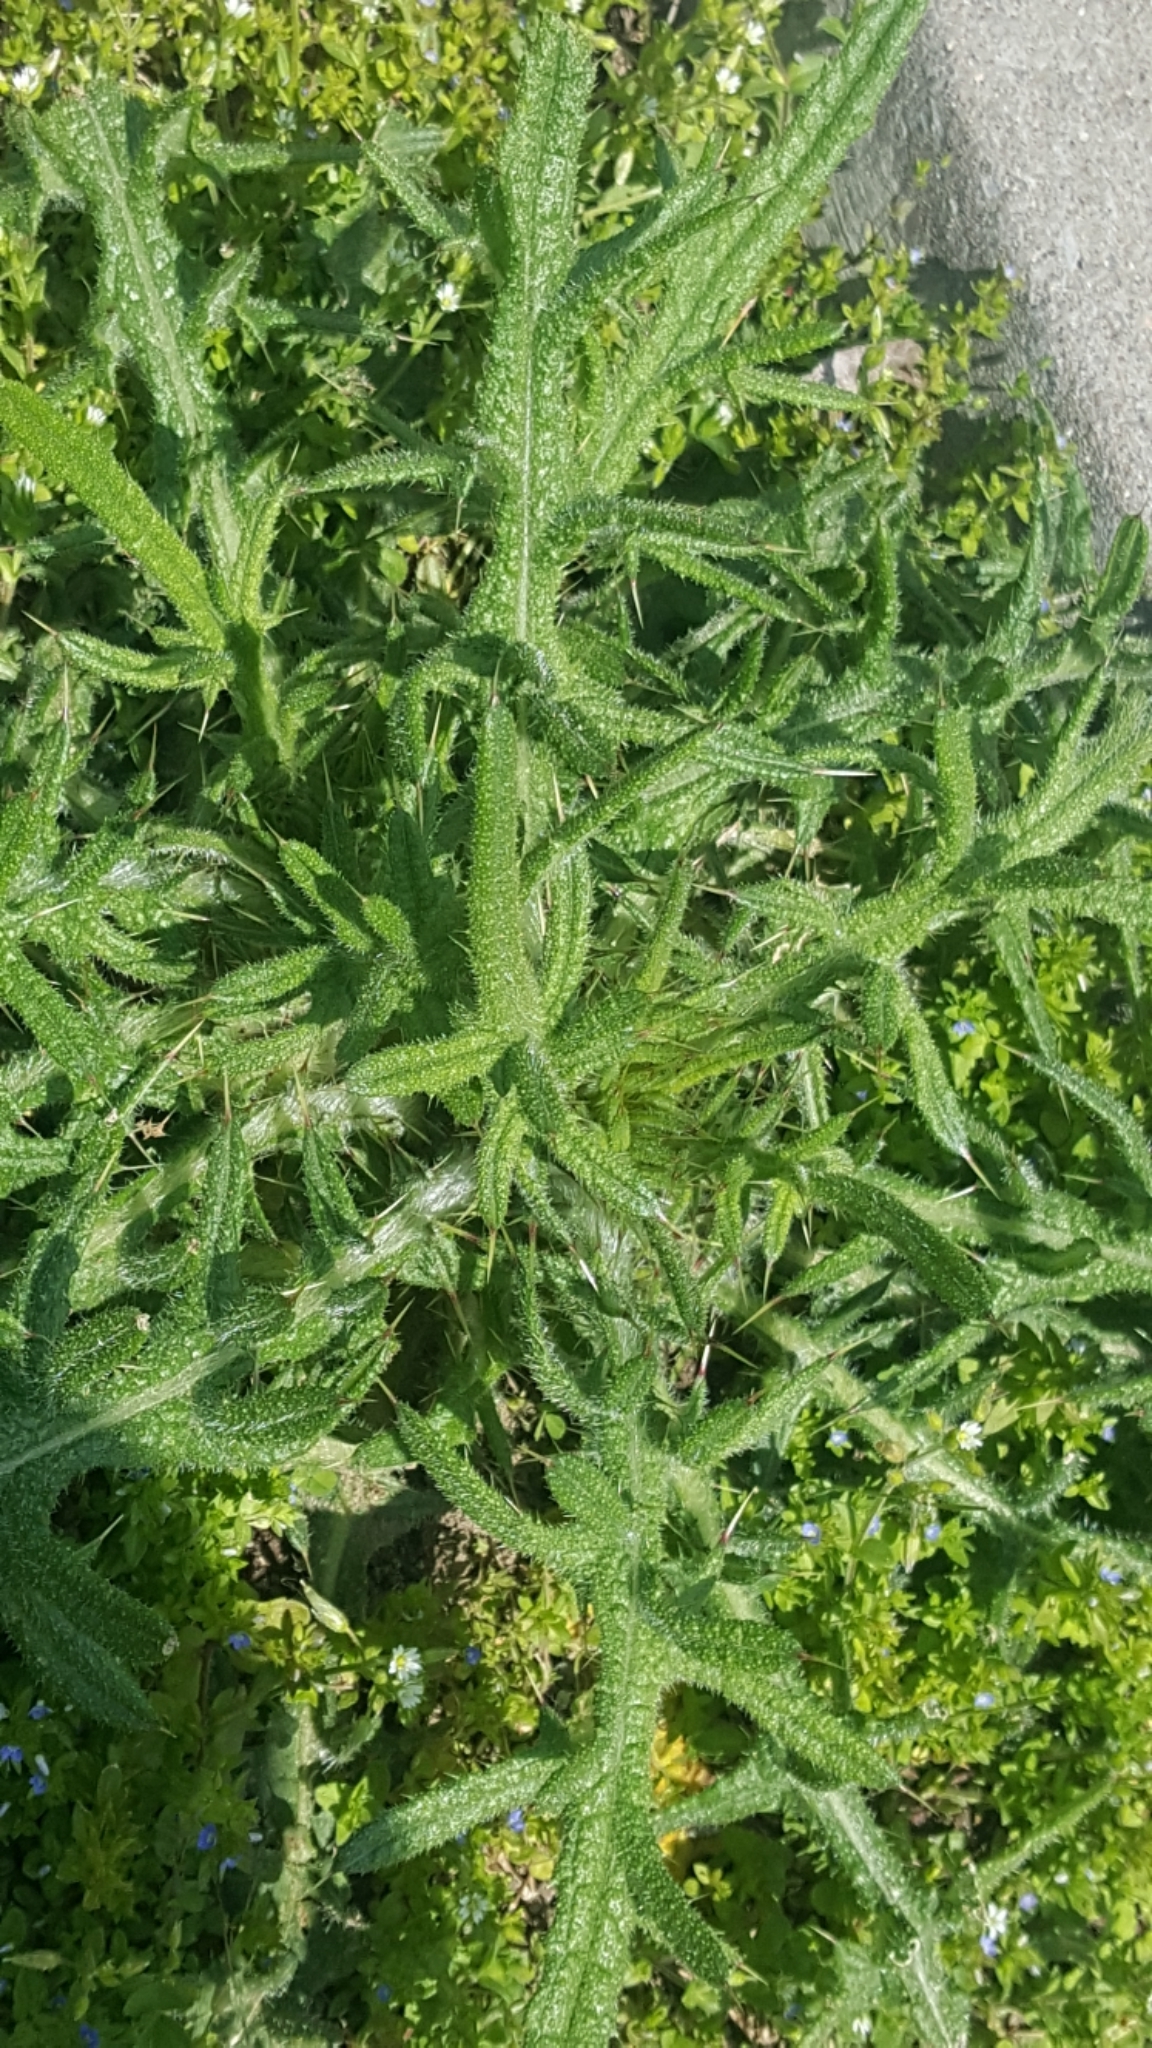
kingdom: Plantae
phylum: Tracheophyta
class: Magnoliopsida
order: Asterales
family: Asteraceae
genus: Cirsium
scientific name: Cirsium vulgare
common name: Bull thistle
